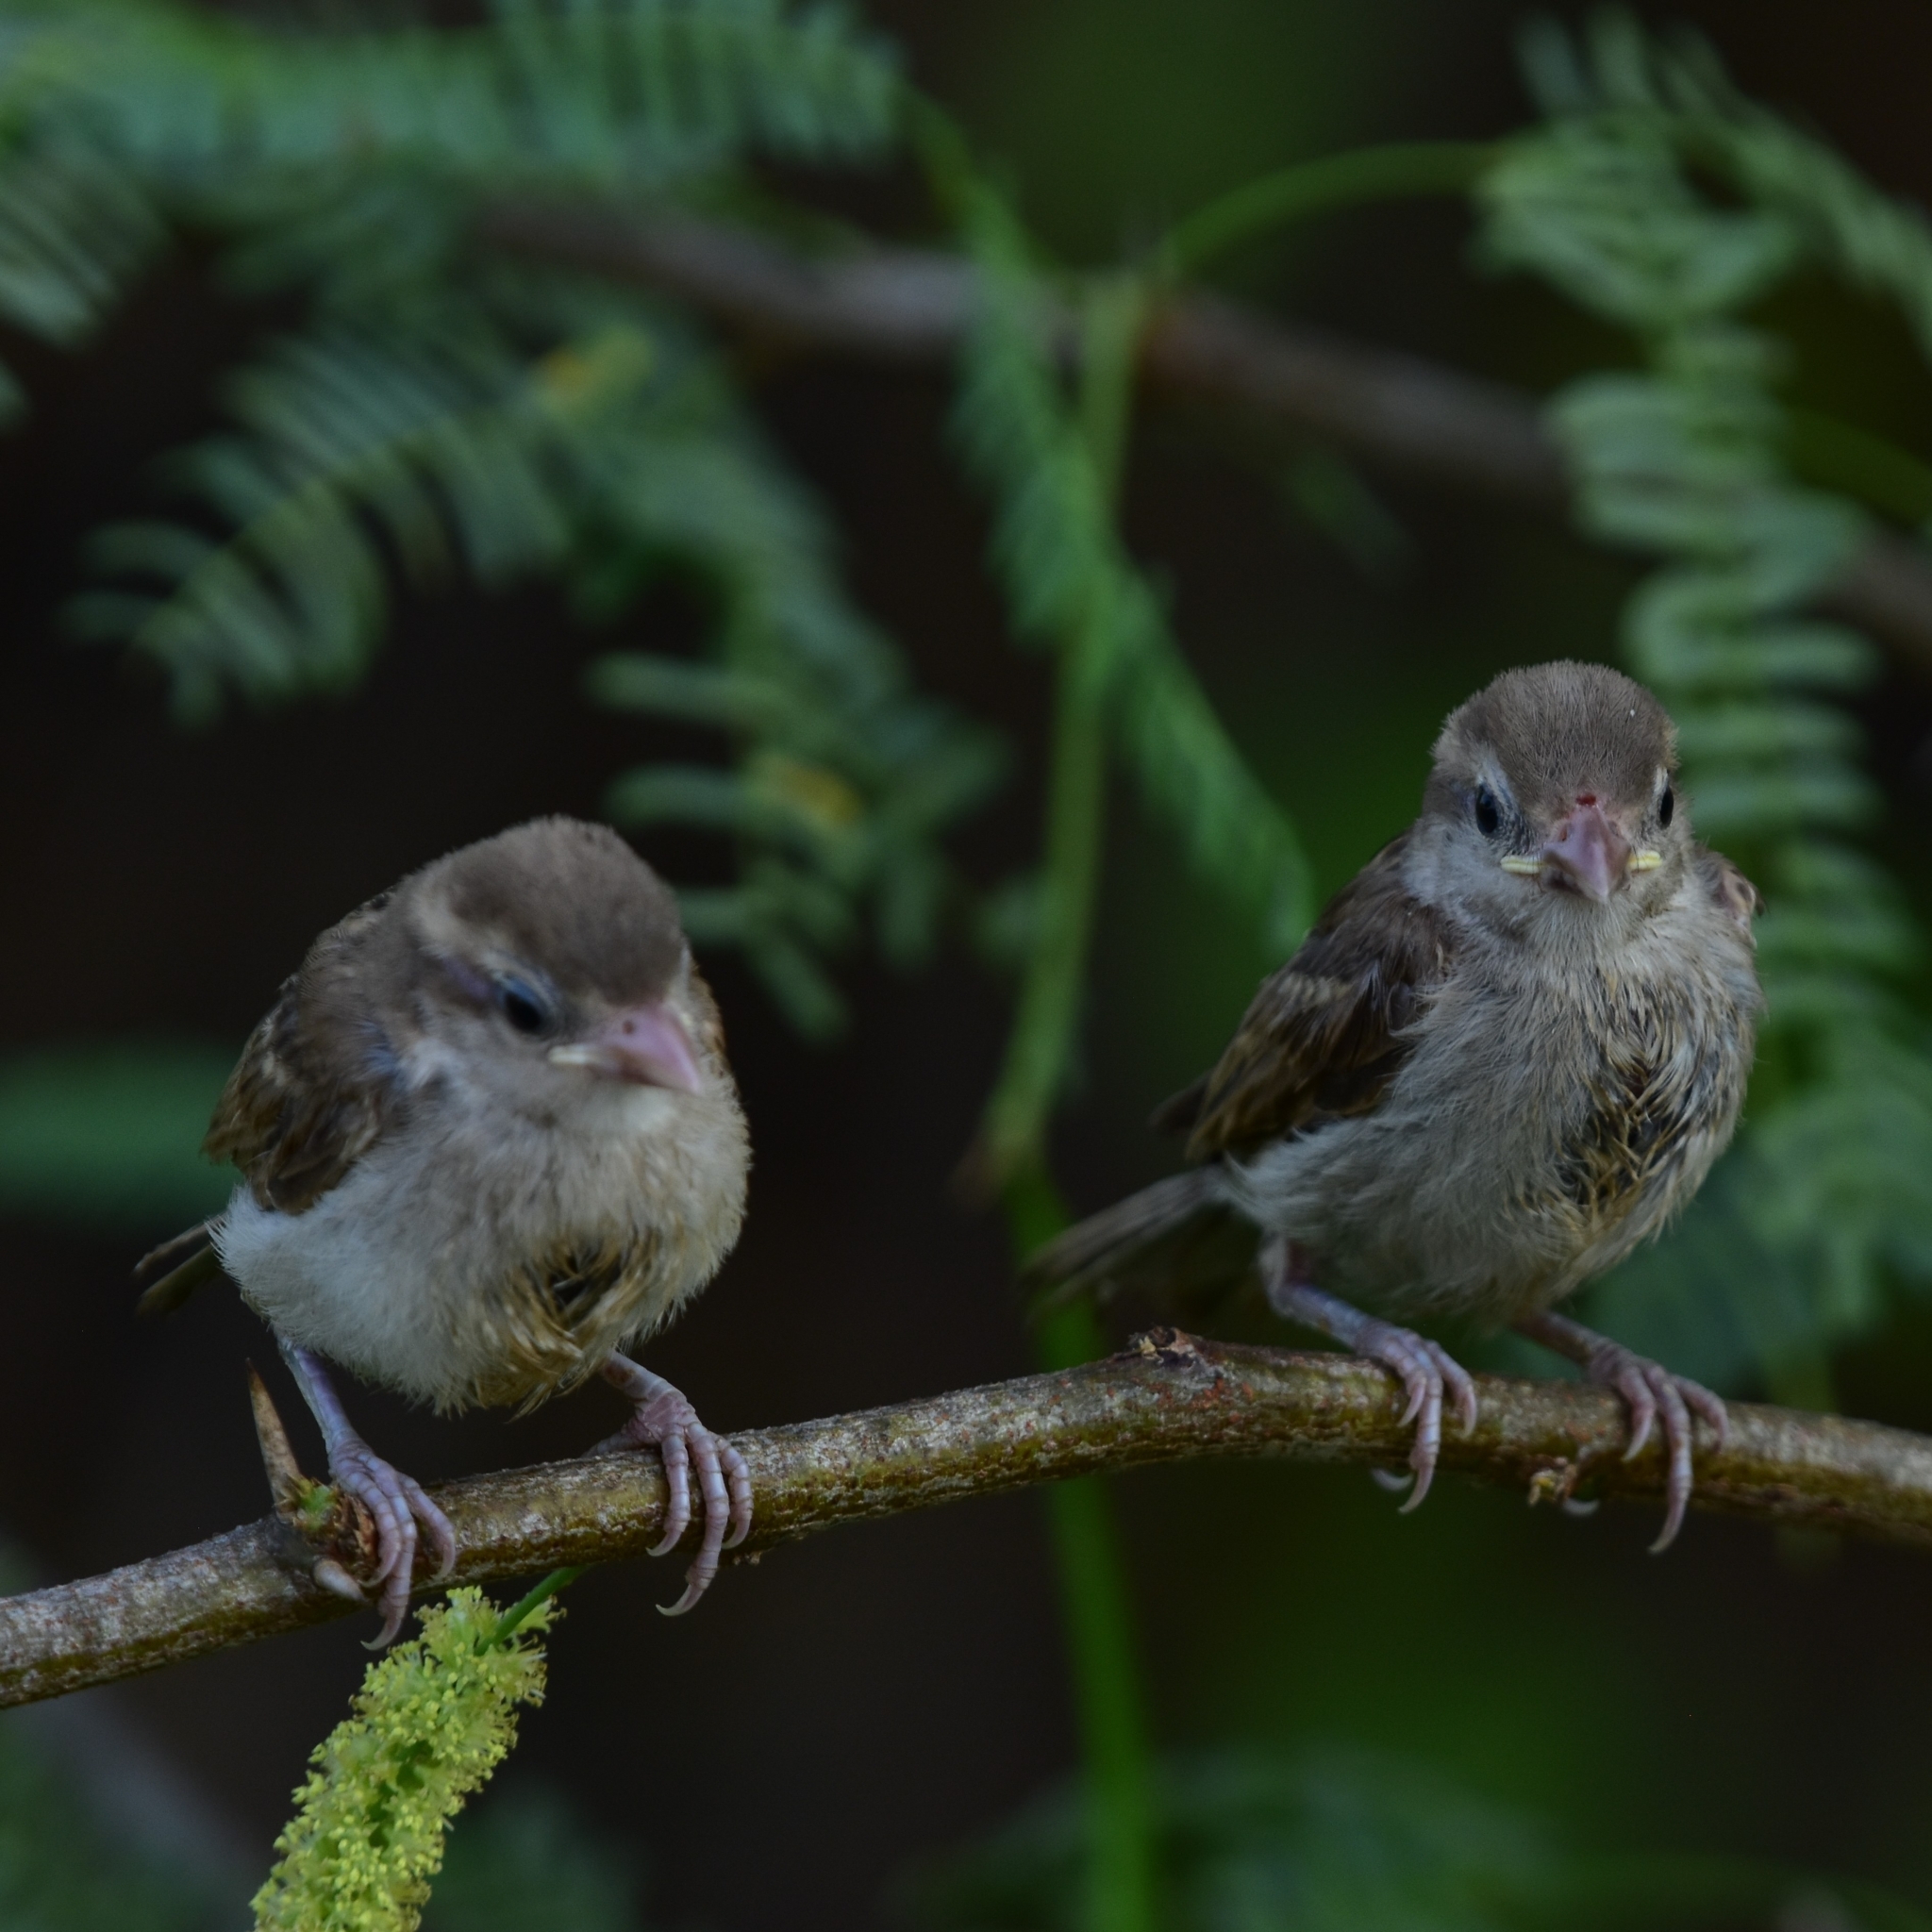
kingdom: Animalia
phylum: Chordata
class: Aves
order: Passeriformes
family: Passeridae
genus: Passer
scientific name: Passer domesticus
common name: House sparrow
